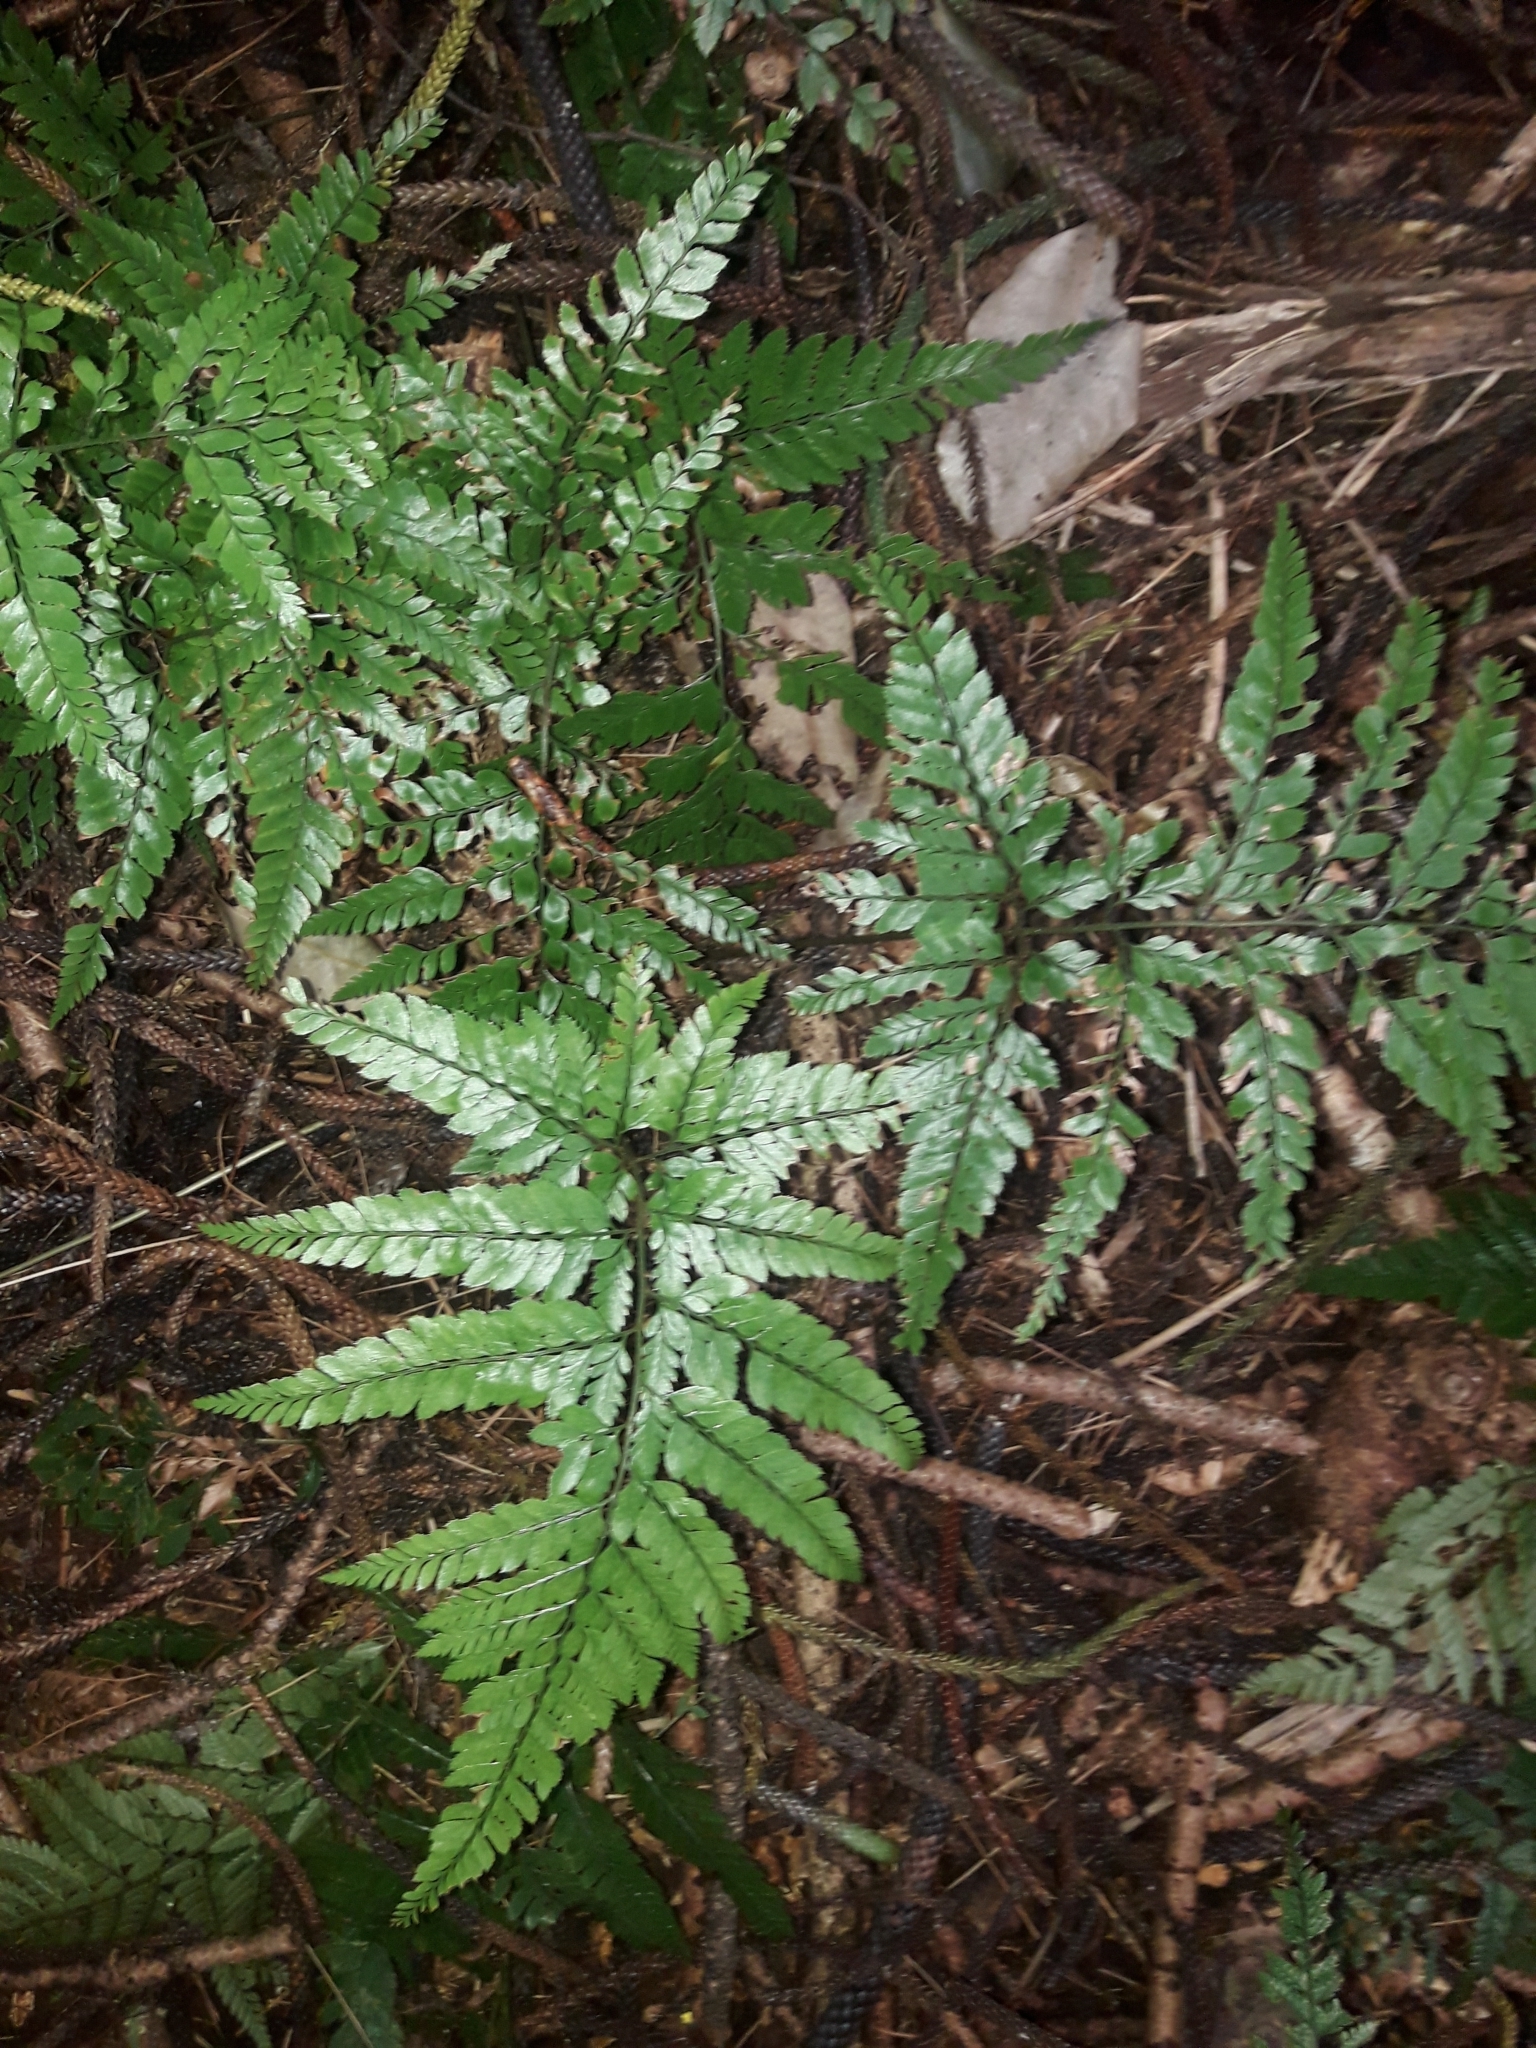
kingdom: Plantae
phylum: Tracheophyta
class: Polypodiopsida
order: Polypodiales
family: Dryopteridaceae
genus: Arachniodes
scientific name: Arachniodes aristata
